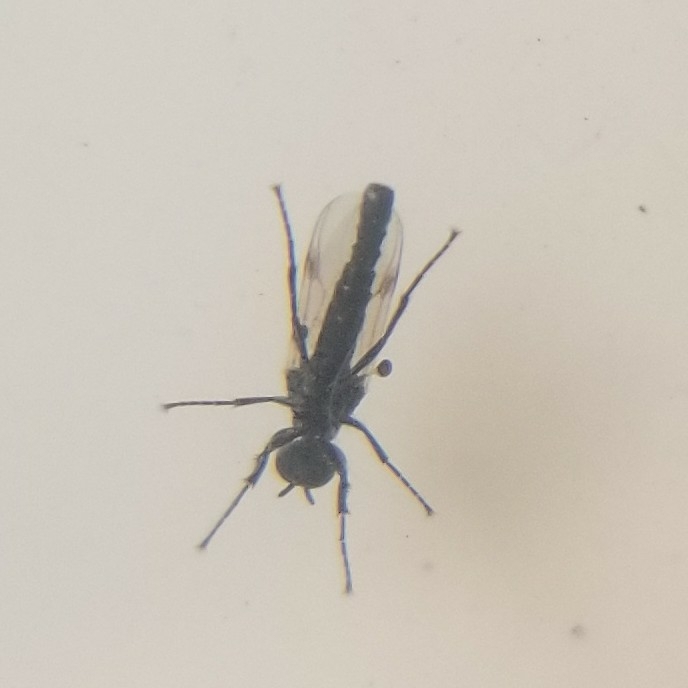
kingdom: Animalia
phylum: Arthropoda
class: Insecta
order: Diptera
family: Bibionidae
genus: Bibio
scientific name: Bibio
